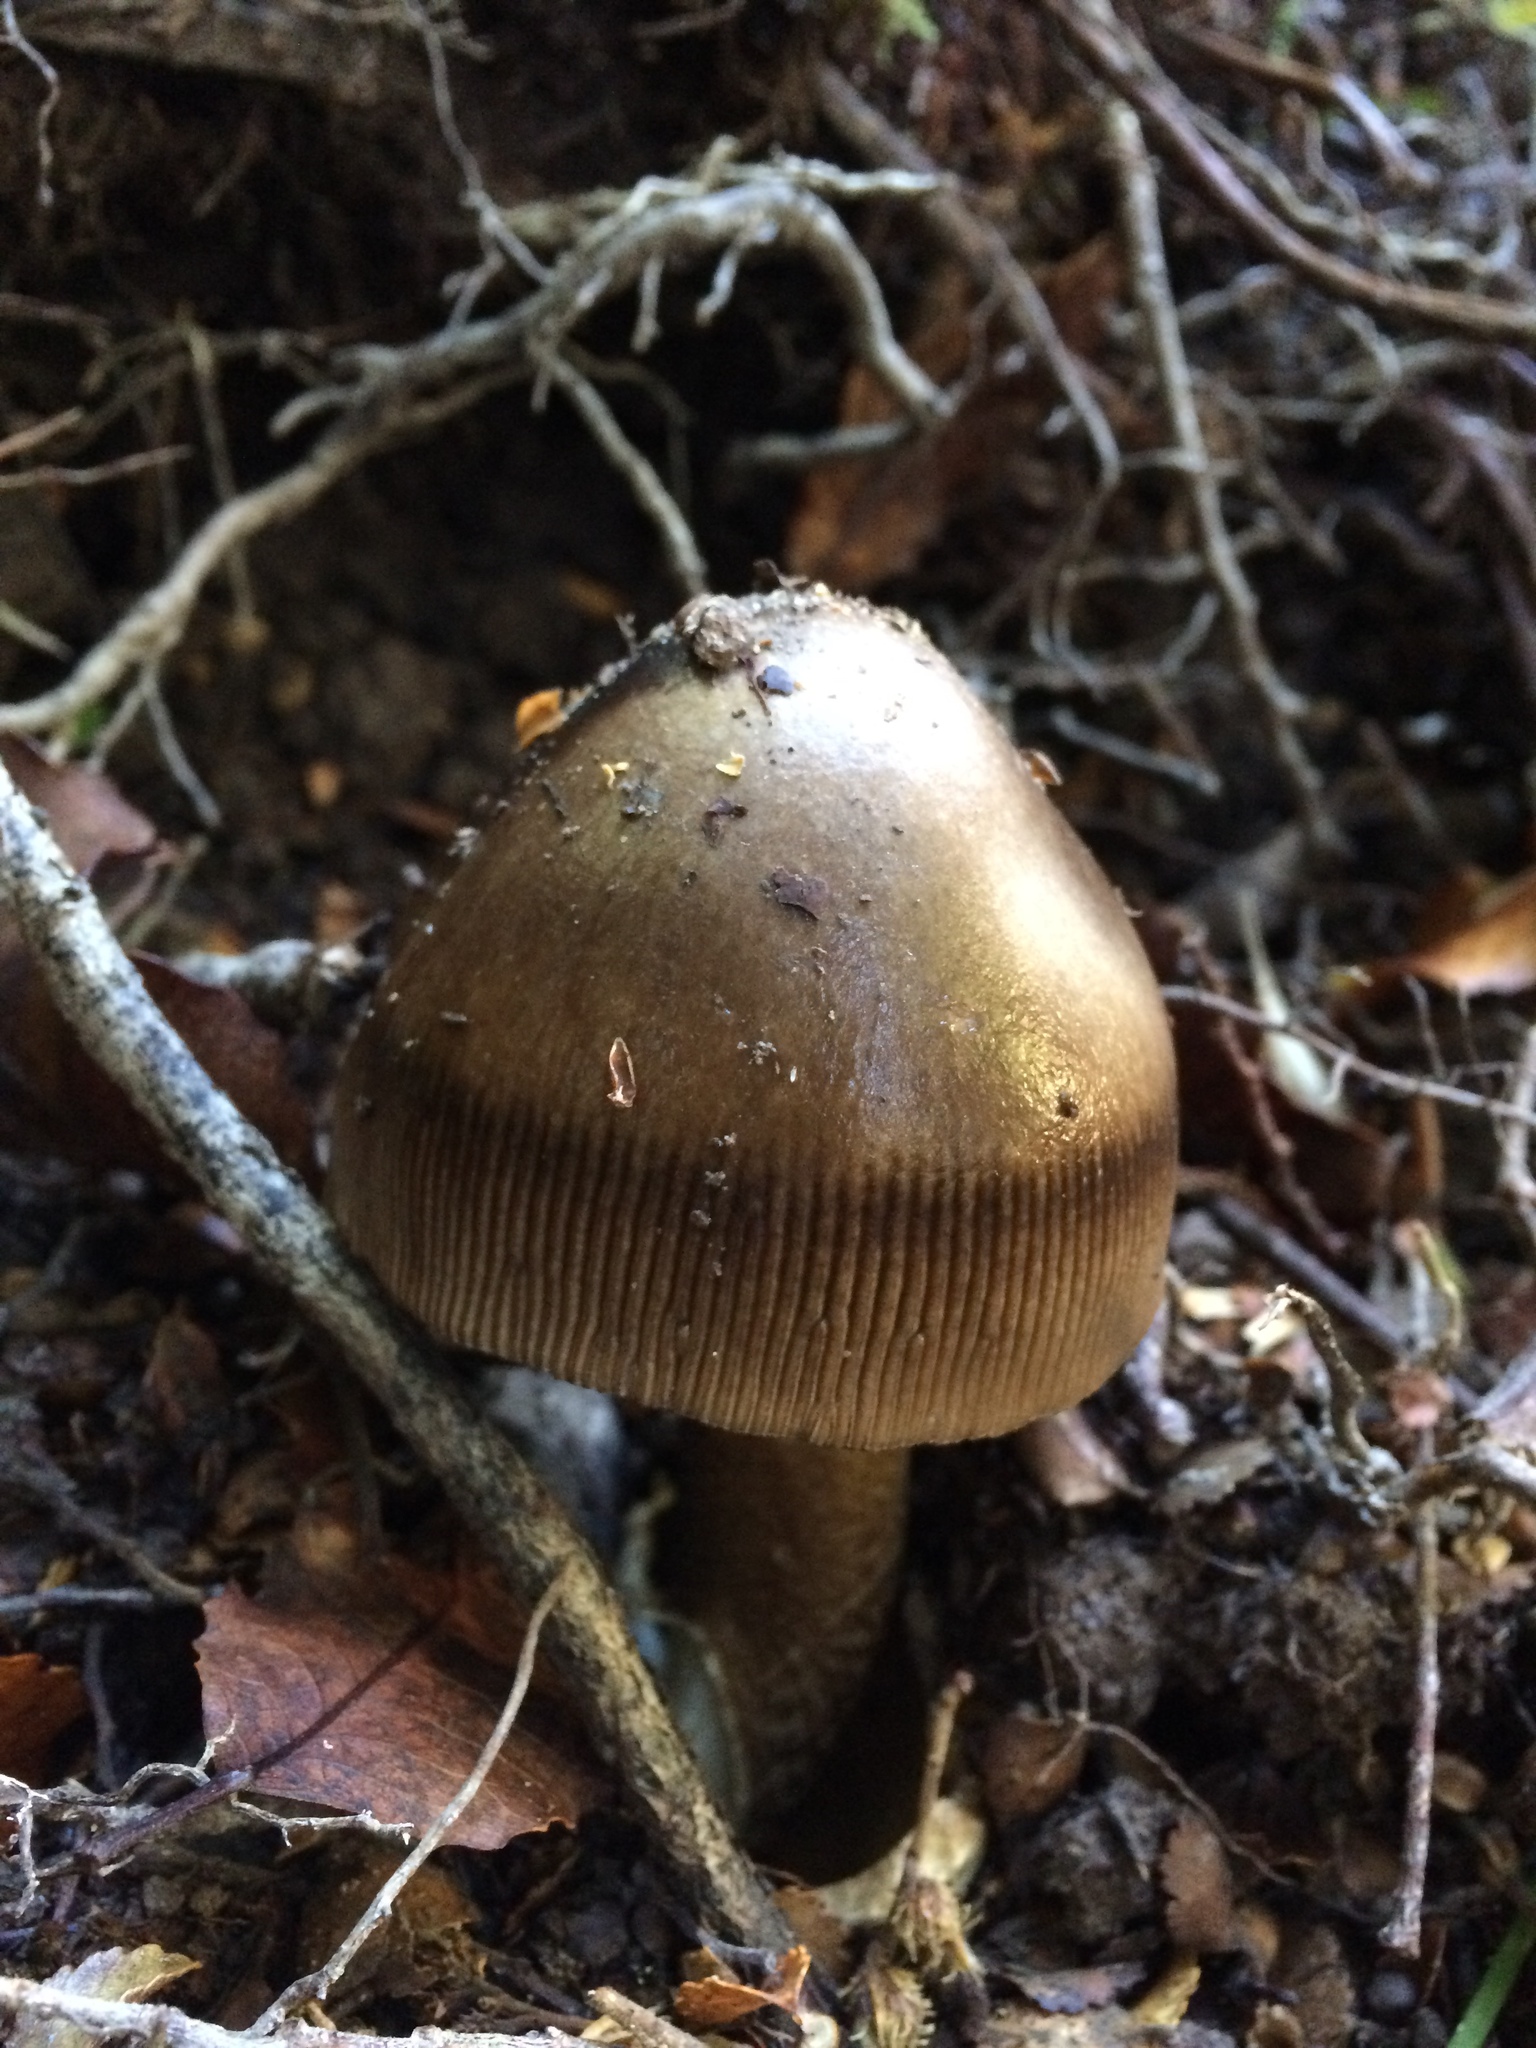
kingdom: Fungi
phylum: Basidiomycota
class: Agaricomycetes
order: Agaricales
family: Amanitaceae
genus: Amanita
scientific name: Amanita pekeoides
